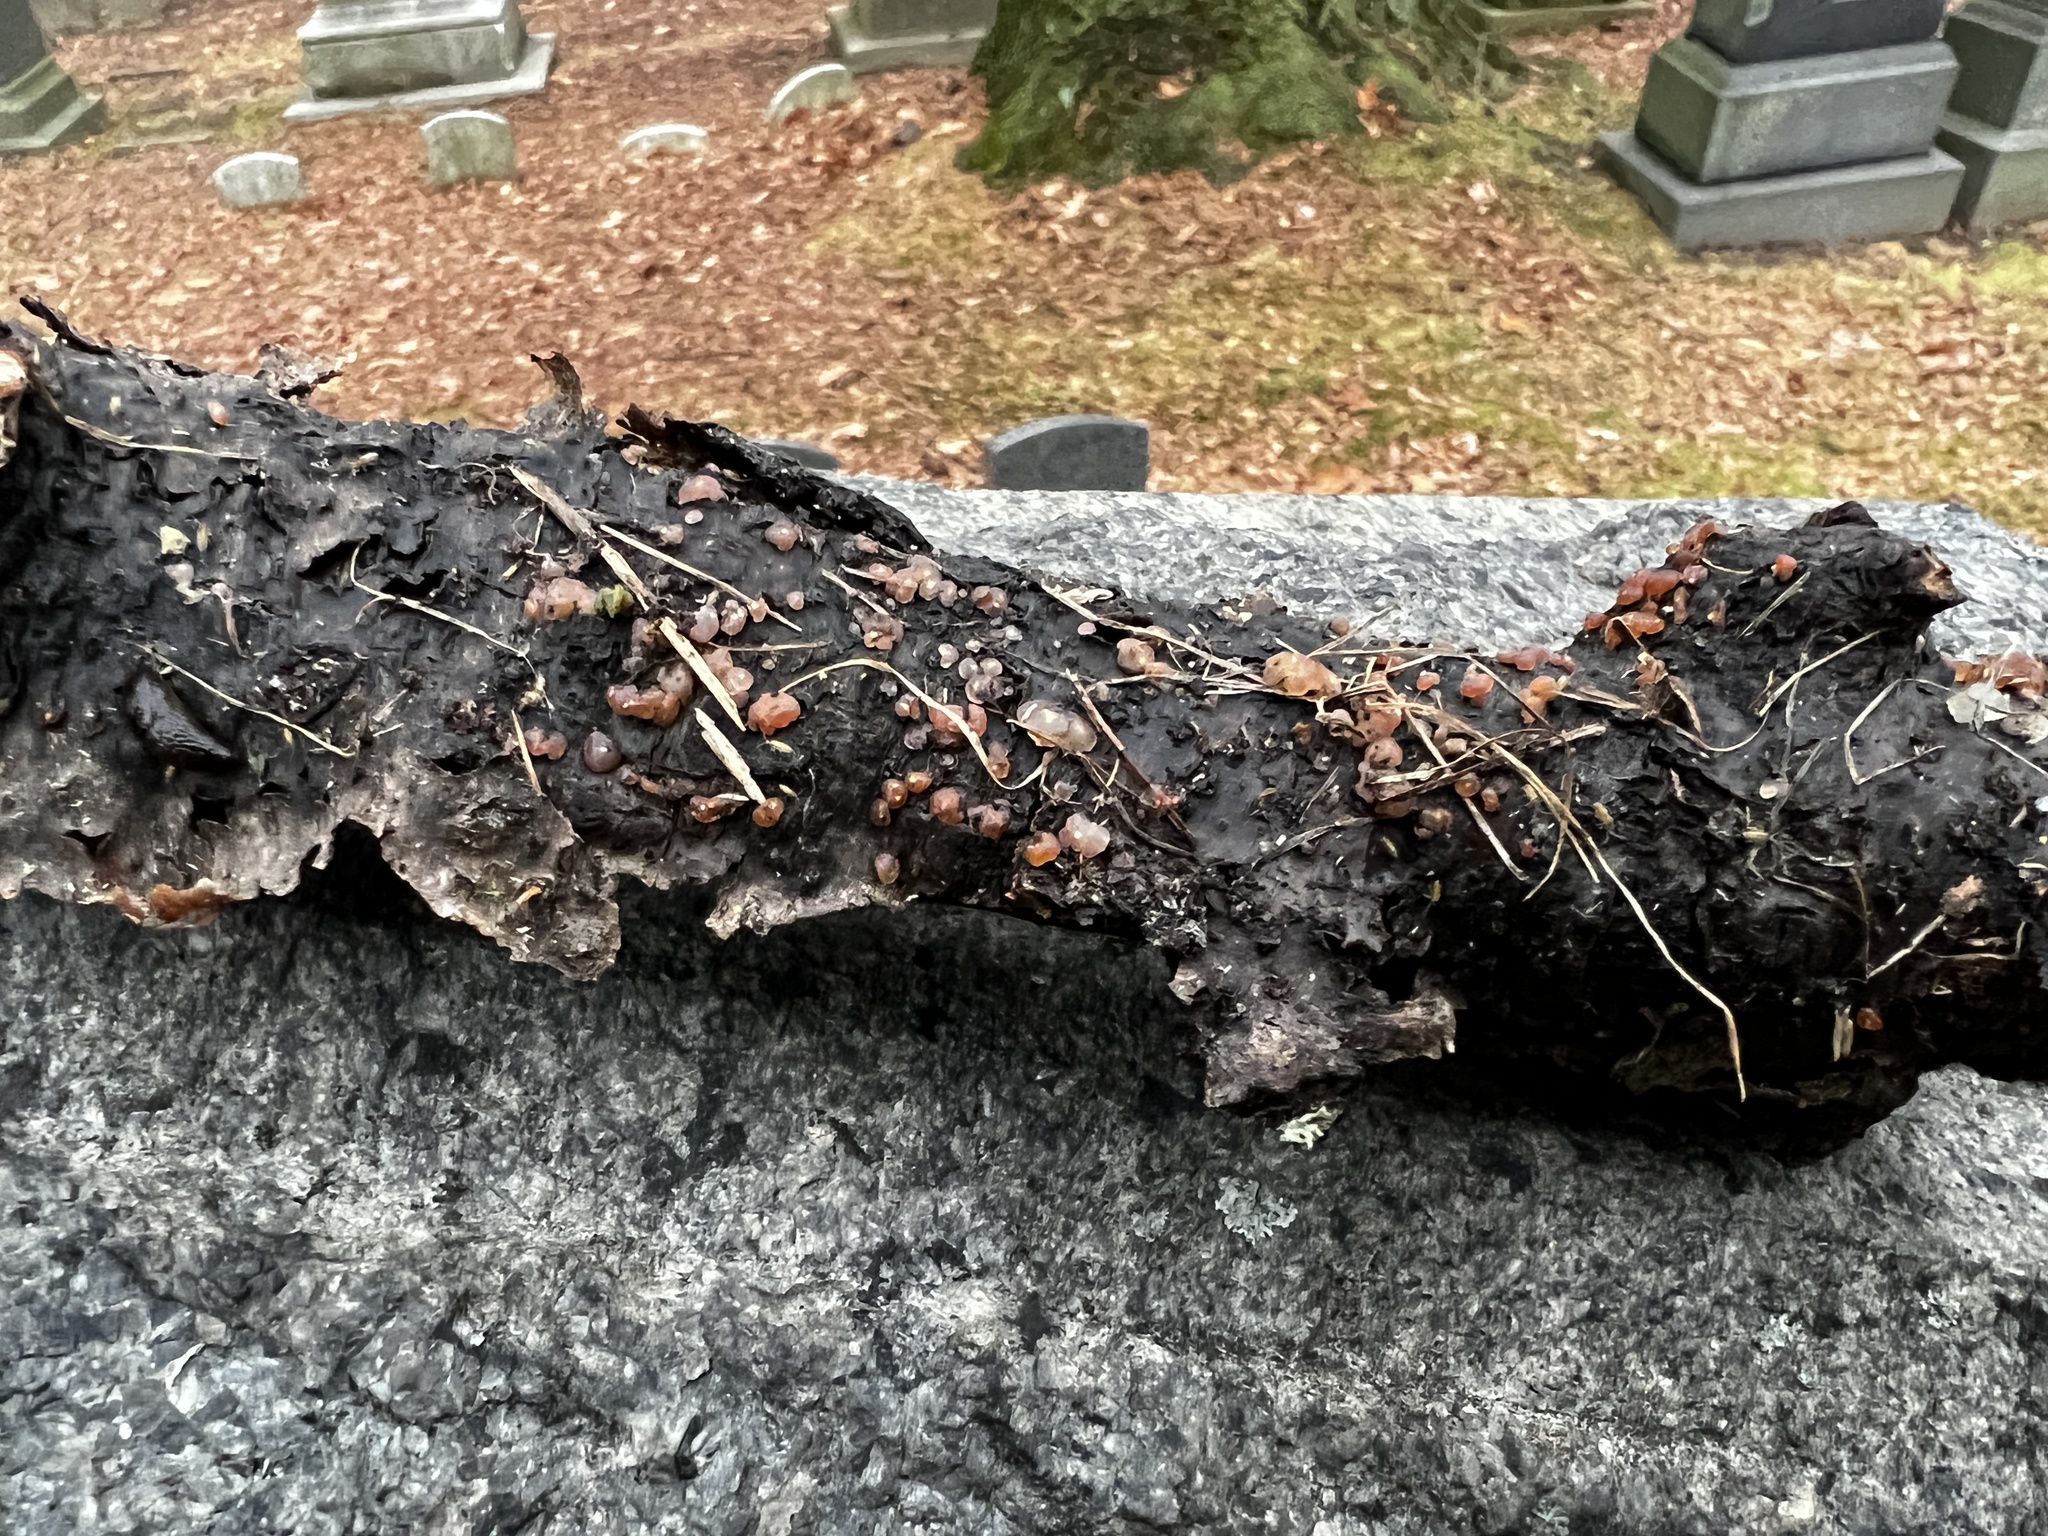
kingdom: Fungi
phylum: Basidiomycota
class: Agaricomycetes
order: Auriculariales
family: Hyaloriaceae
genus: Myxarium
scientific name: Myxarium nucleatum
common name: Crystal brain fungus
